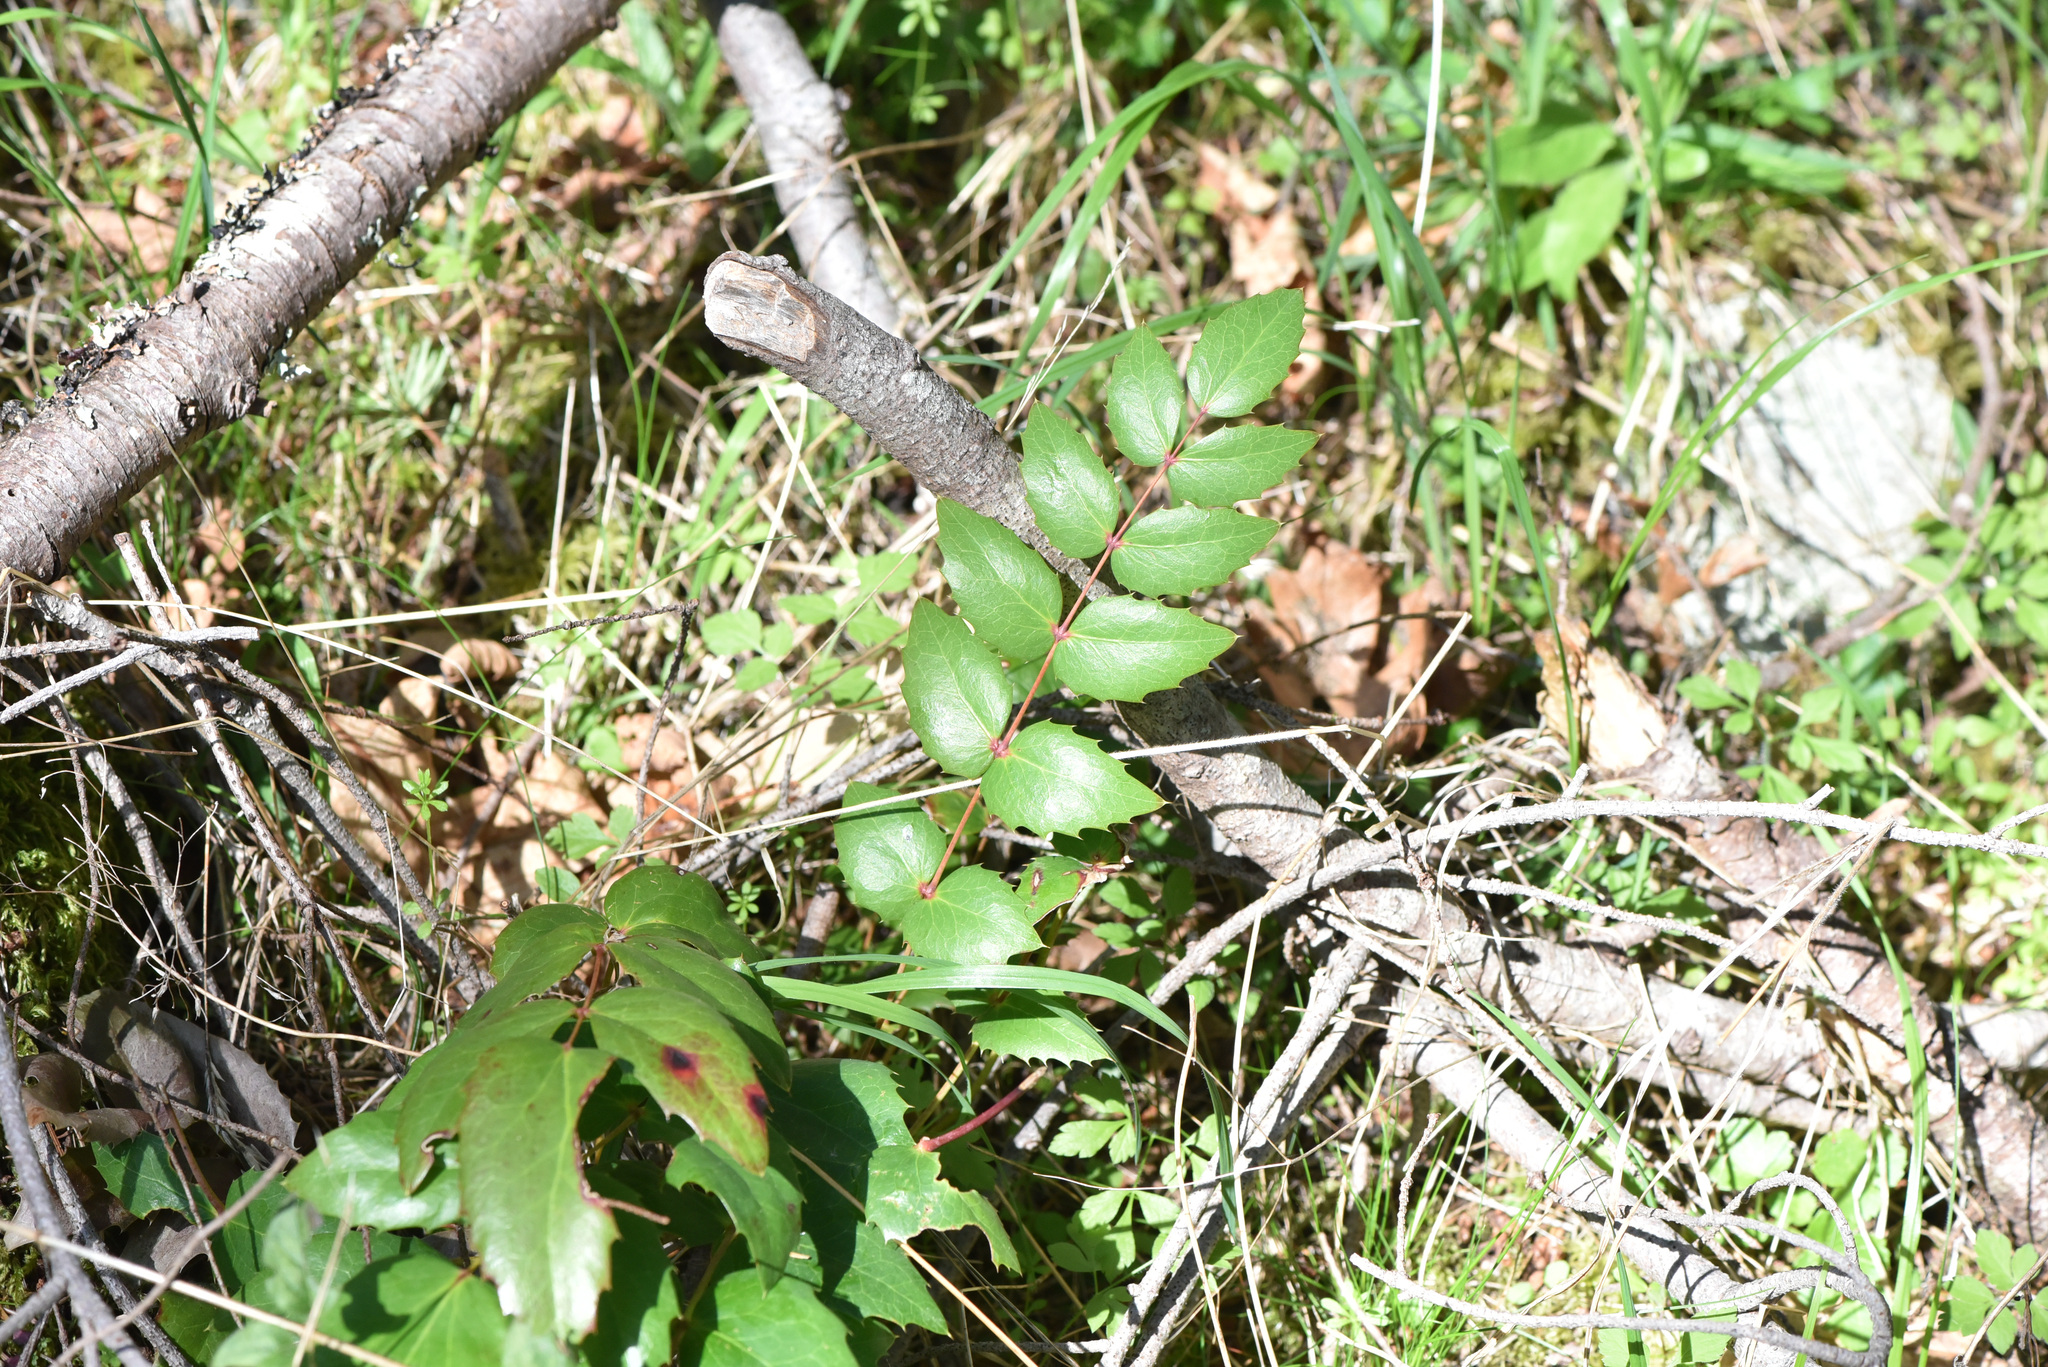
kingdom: Plantae
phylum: Tracheophyta
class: Magnoliopsida
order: Ranunculales
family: Berberidaceae
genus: Mahonia
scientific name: Mahonia nervosa
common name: Cascade oregon-grape
